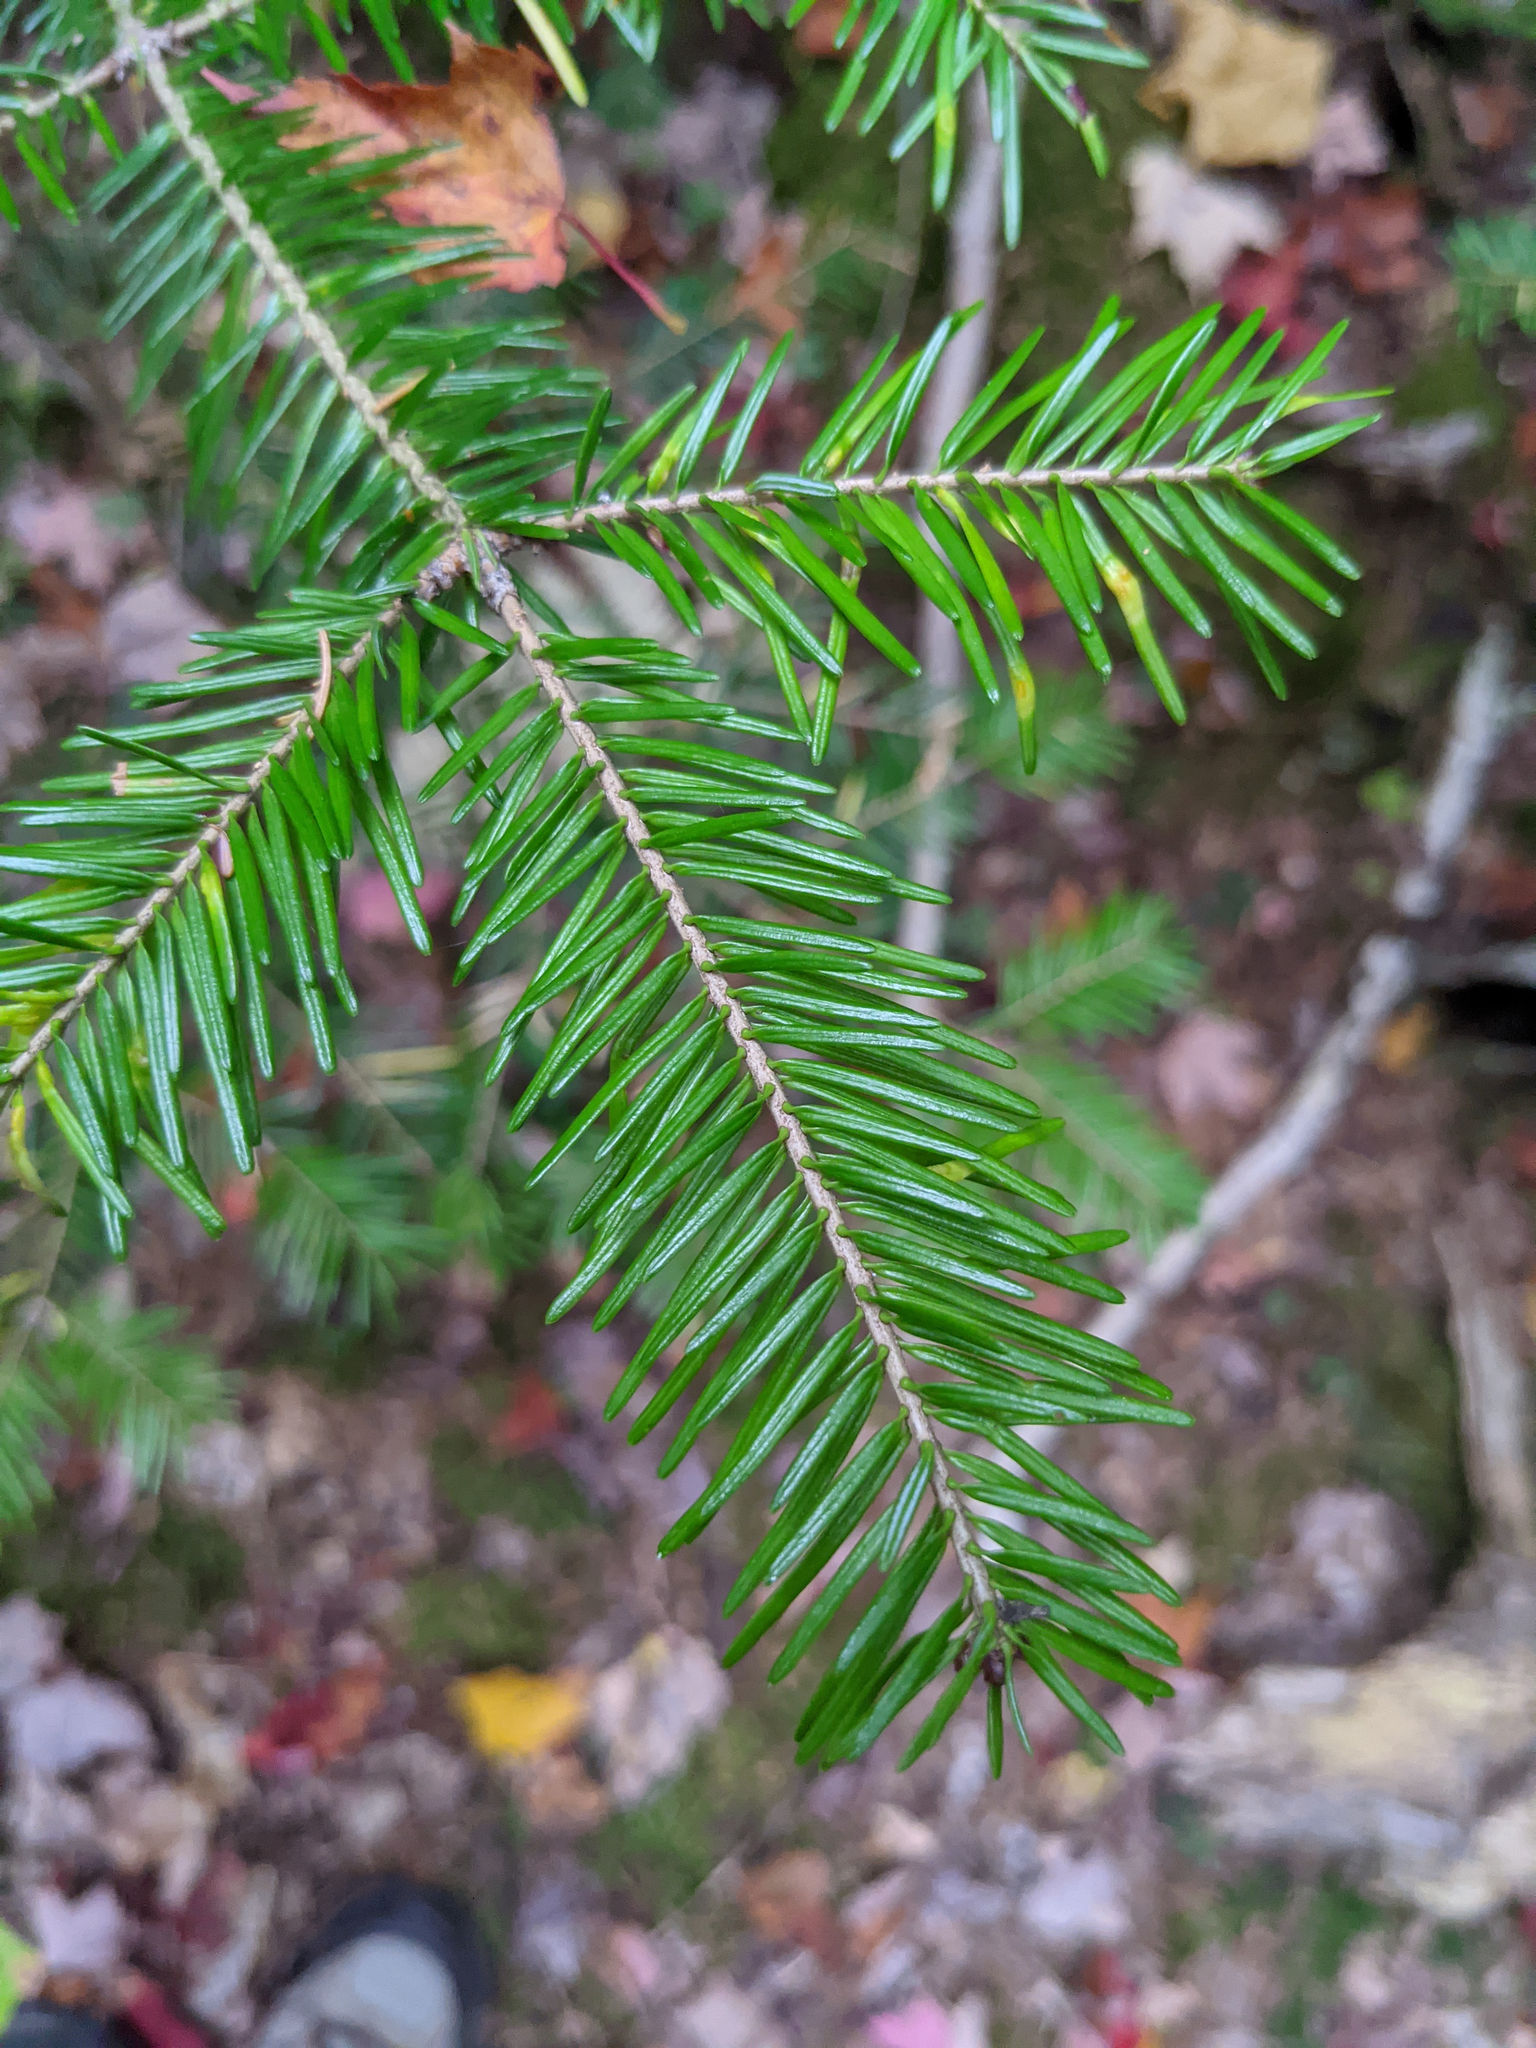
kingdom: Plantae
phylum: Tracheophyta
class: Pinopsida
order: Pinales
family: Pinaceae
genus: Abies
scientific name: Abies balsamea
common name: Balsam fir
